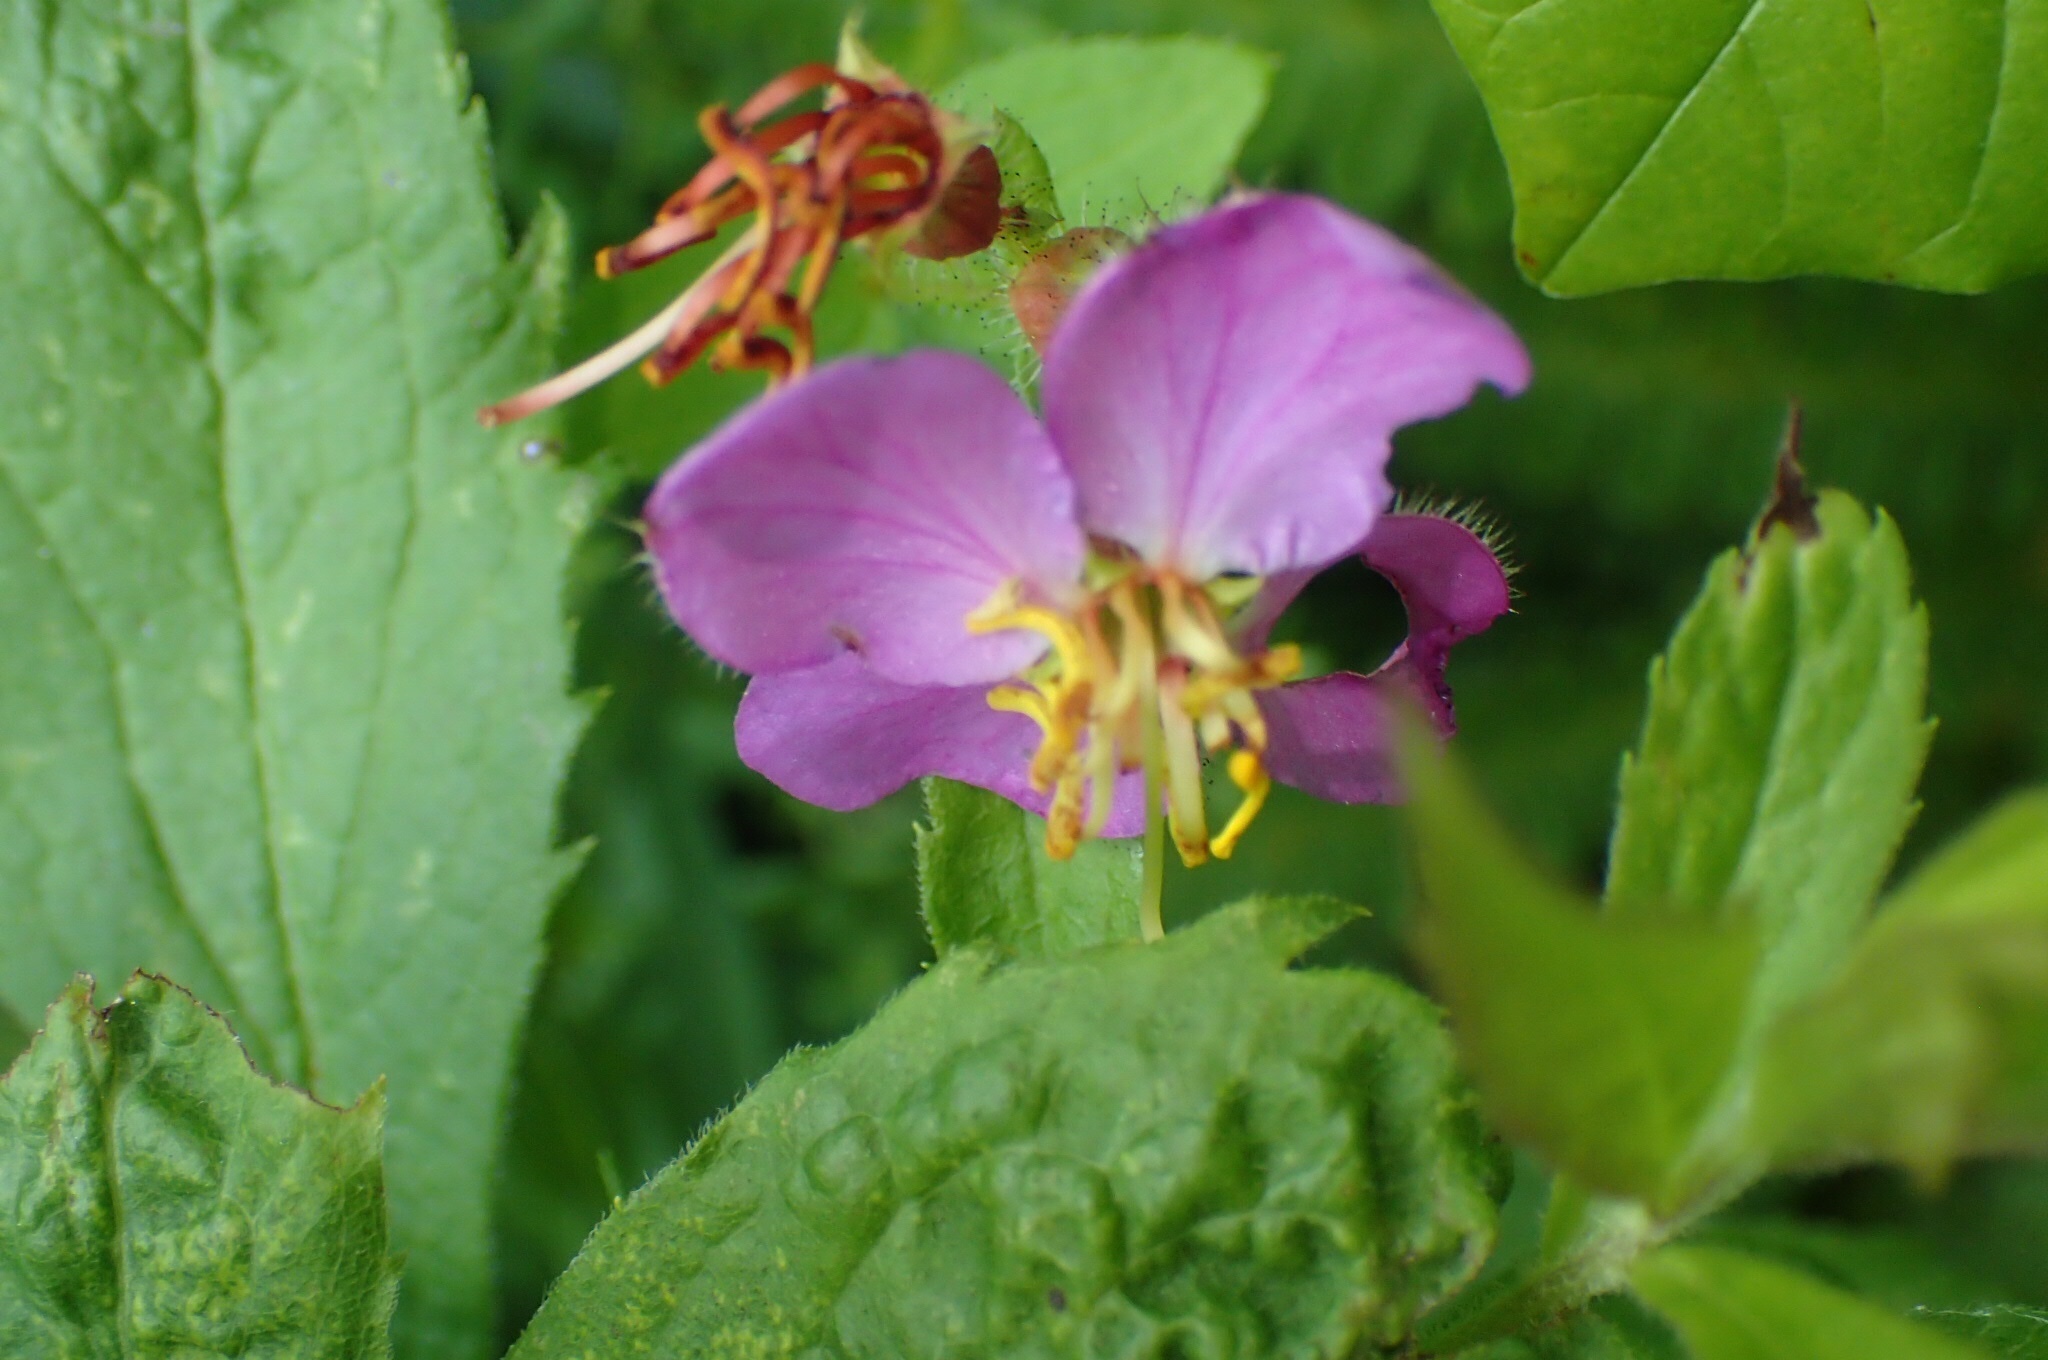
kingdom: Plantae
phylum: Tracheophyta
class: Magnoliopsida
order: Myrtales
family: Melastomataceae
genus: Rhexia
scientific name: Rhexia virginica
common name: Common meadow beauty
